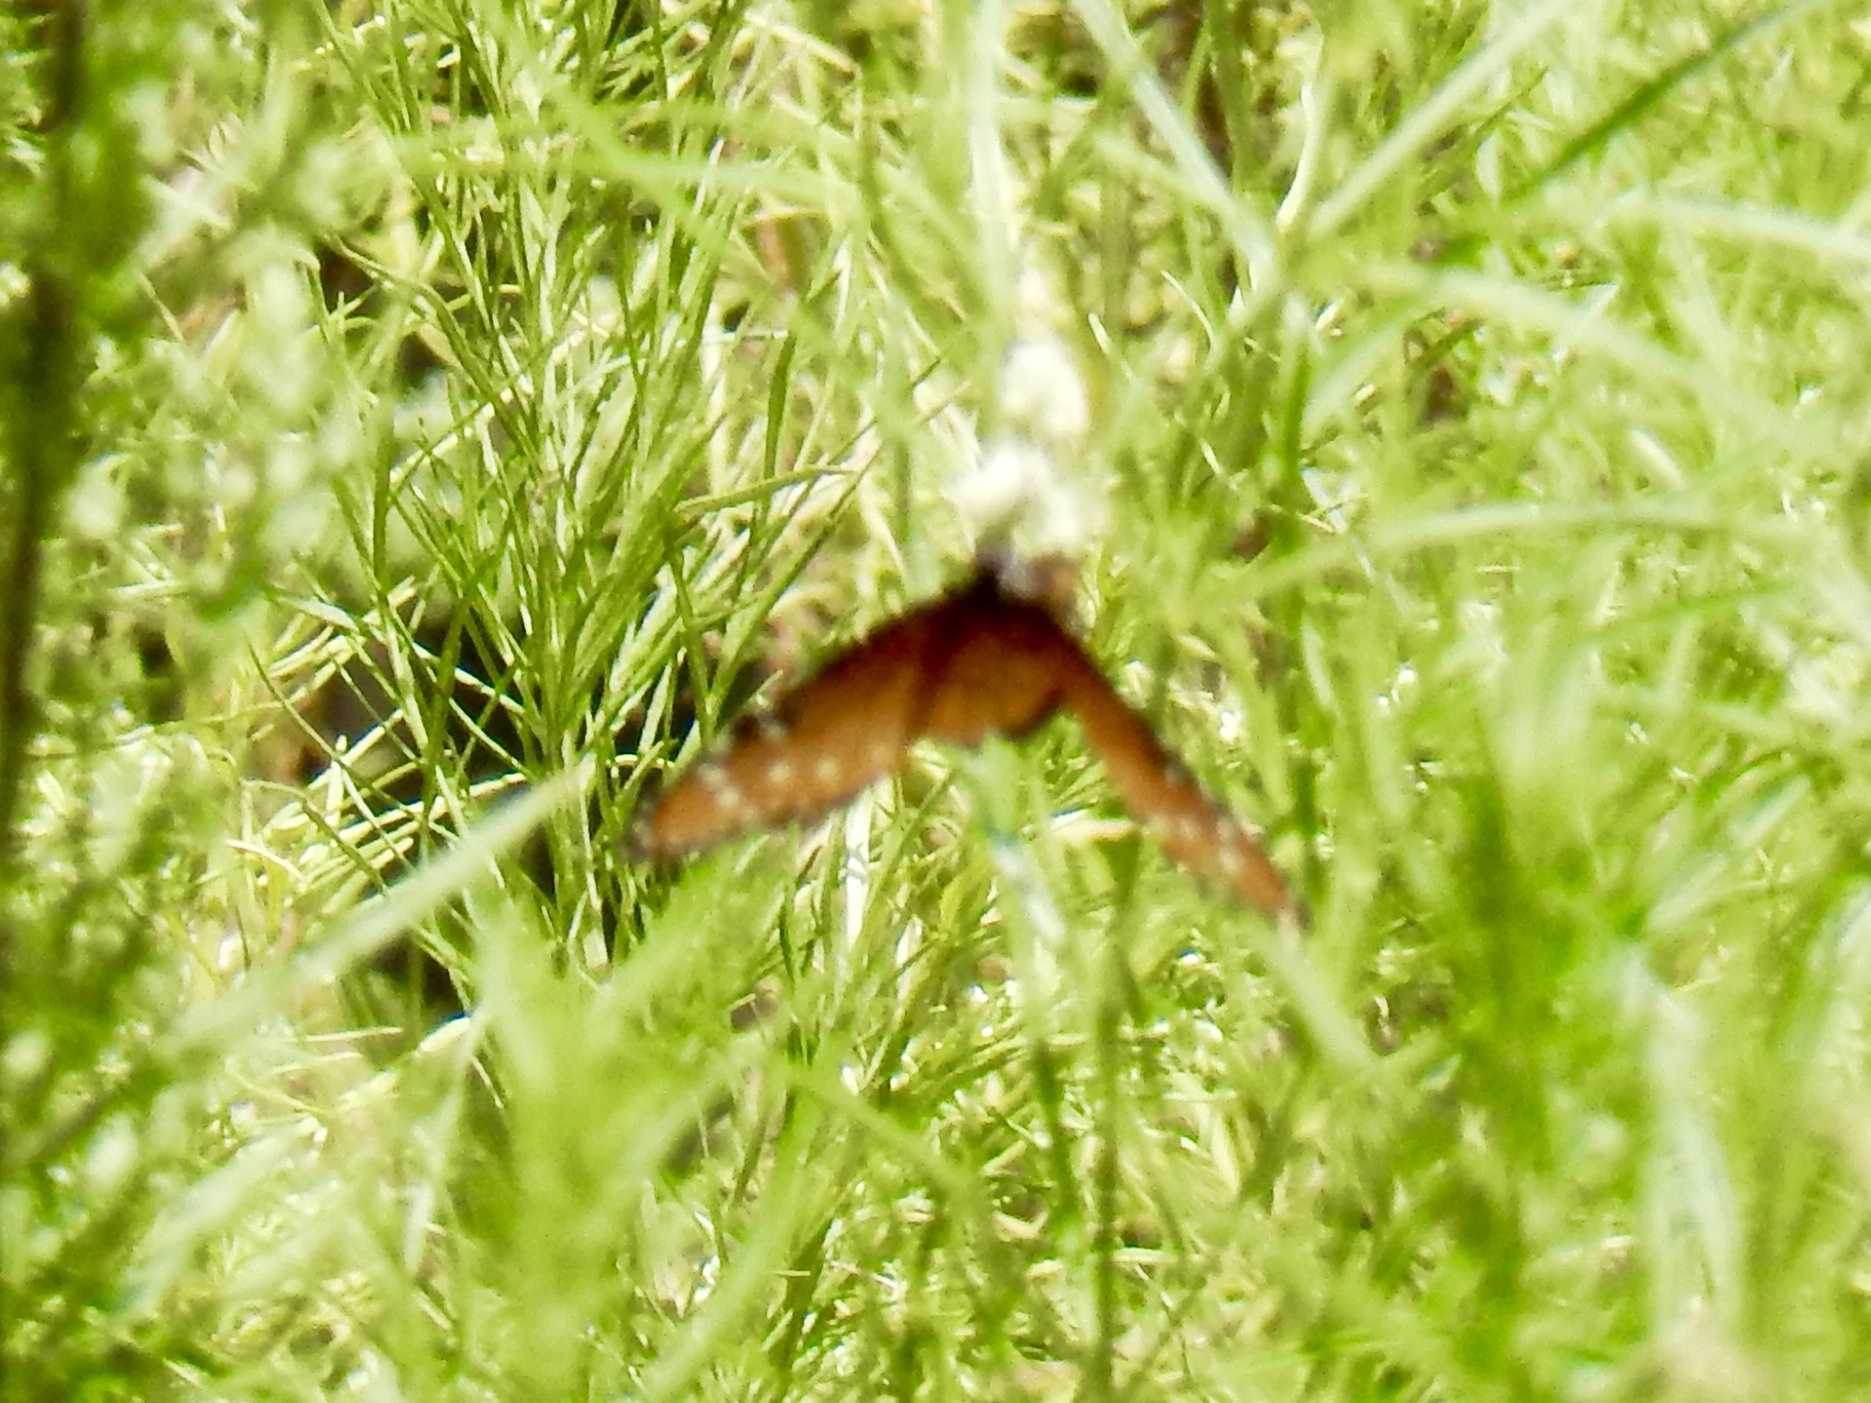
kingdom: Animalia
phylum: Arthropoda
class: Insecta
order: Lepidoptera
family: Nymphalidae
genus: Danaus
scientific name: Danaus gilippus
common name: Queen
